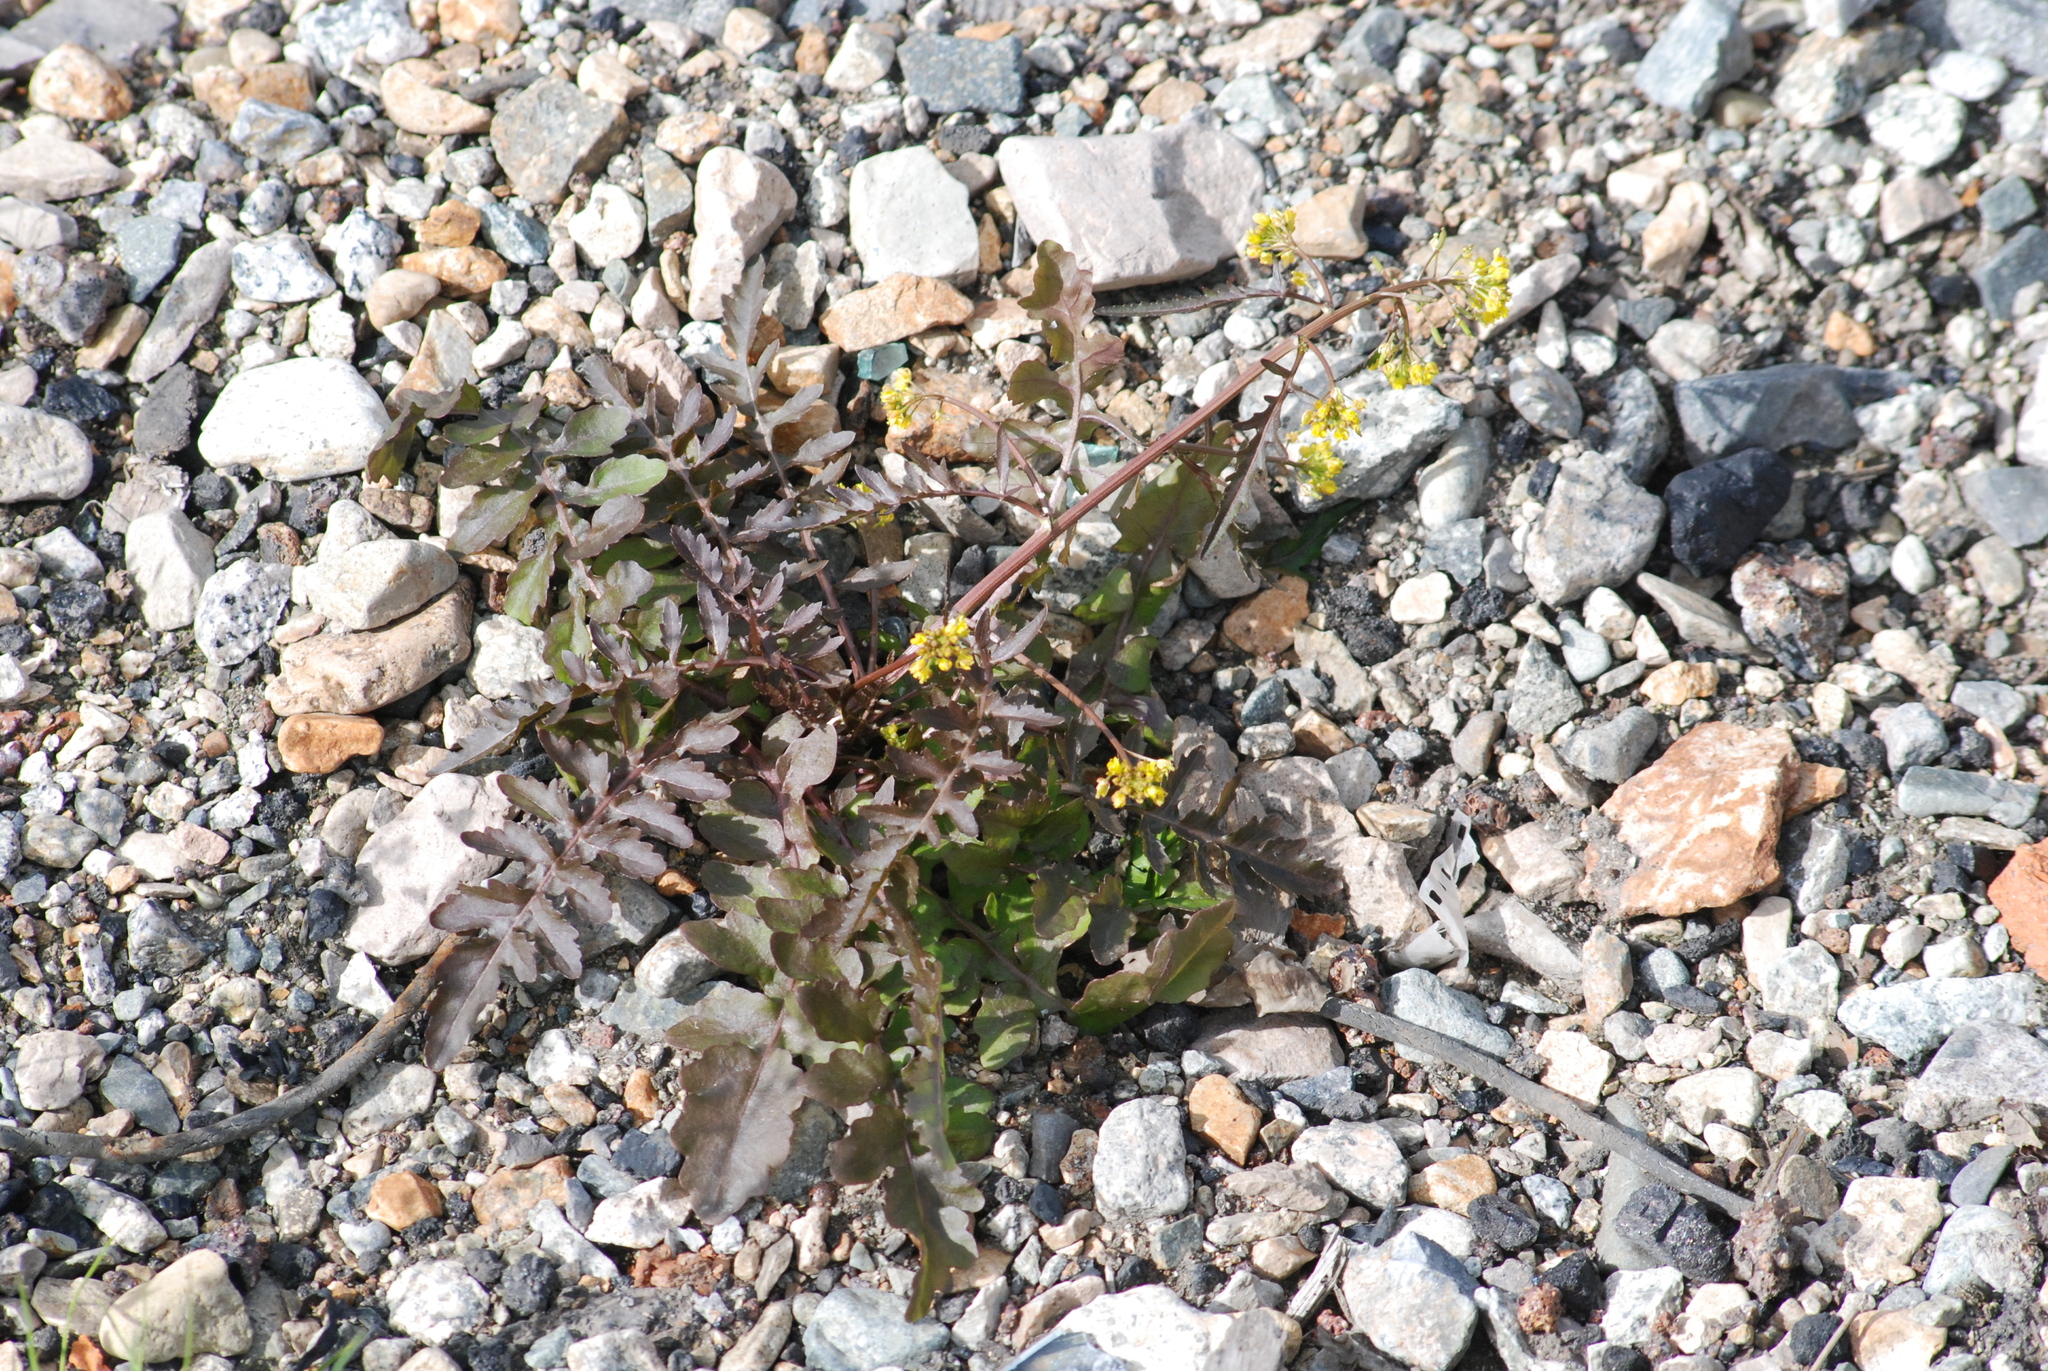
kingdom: Plantae
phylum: Tracheophyta
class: Magnoliopsida
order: Brassicales
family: Brassicaceae
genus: Rorippa
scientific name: Rorippa palustris
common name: Marsh yellow-cress
